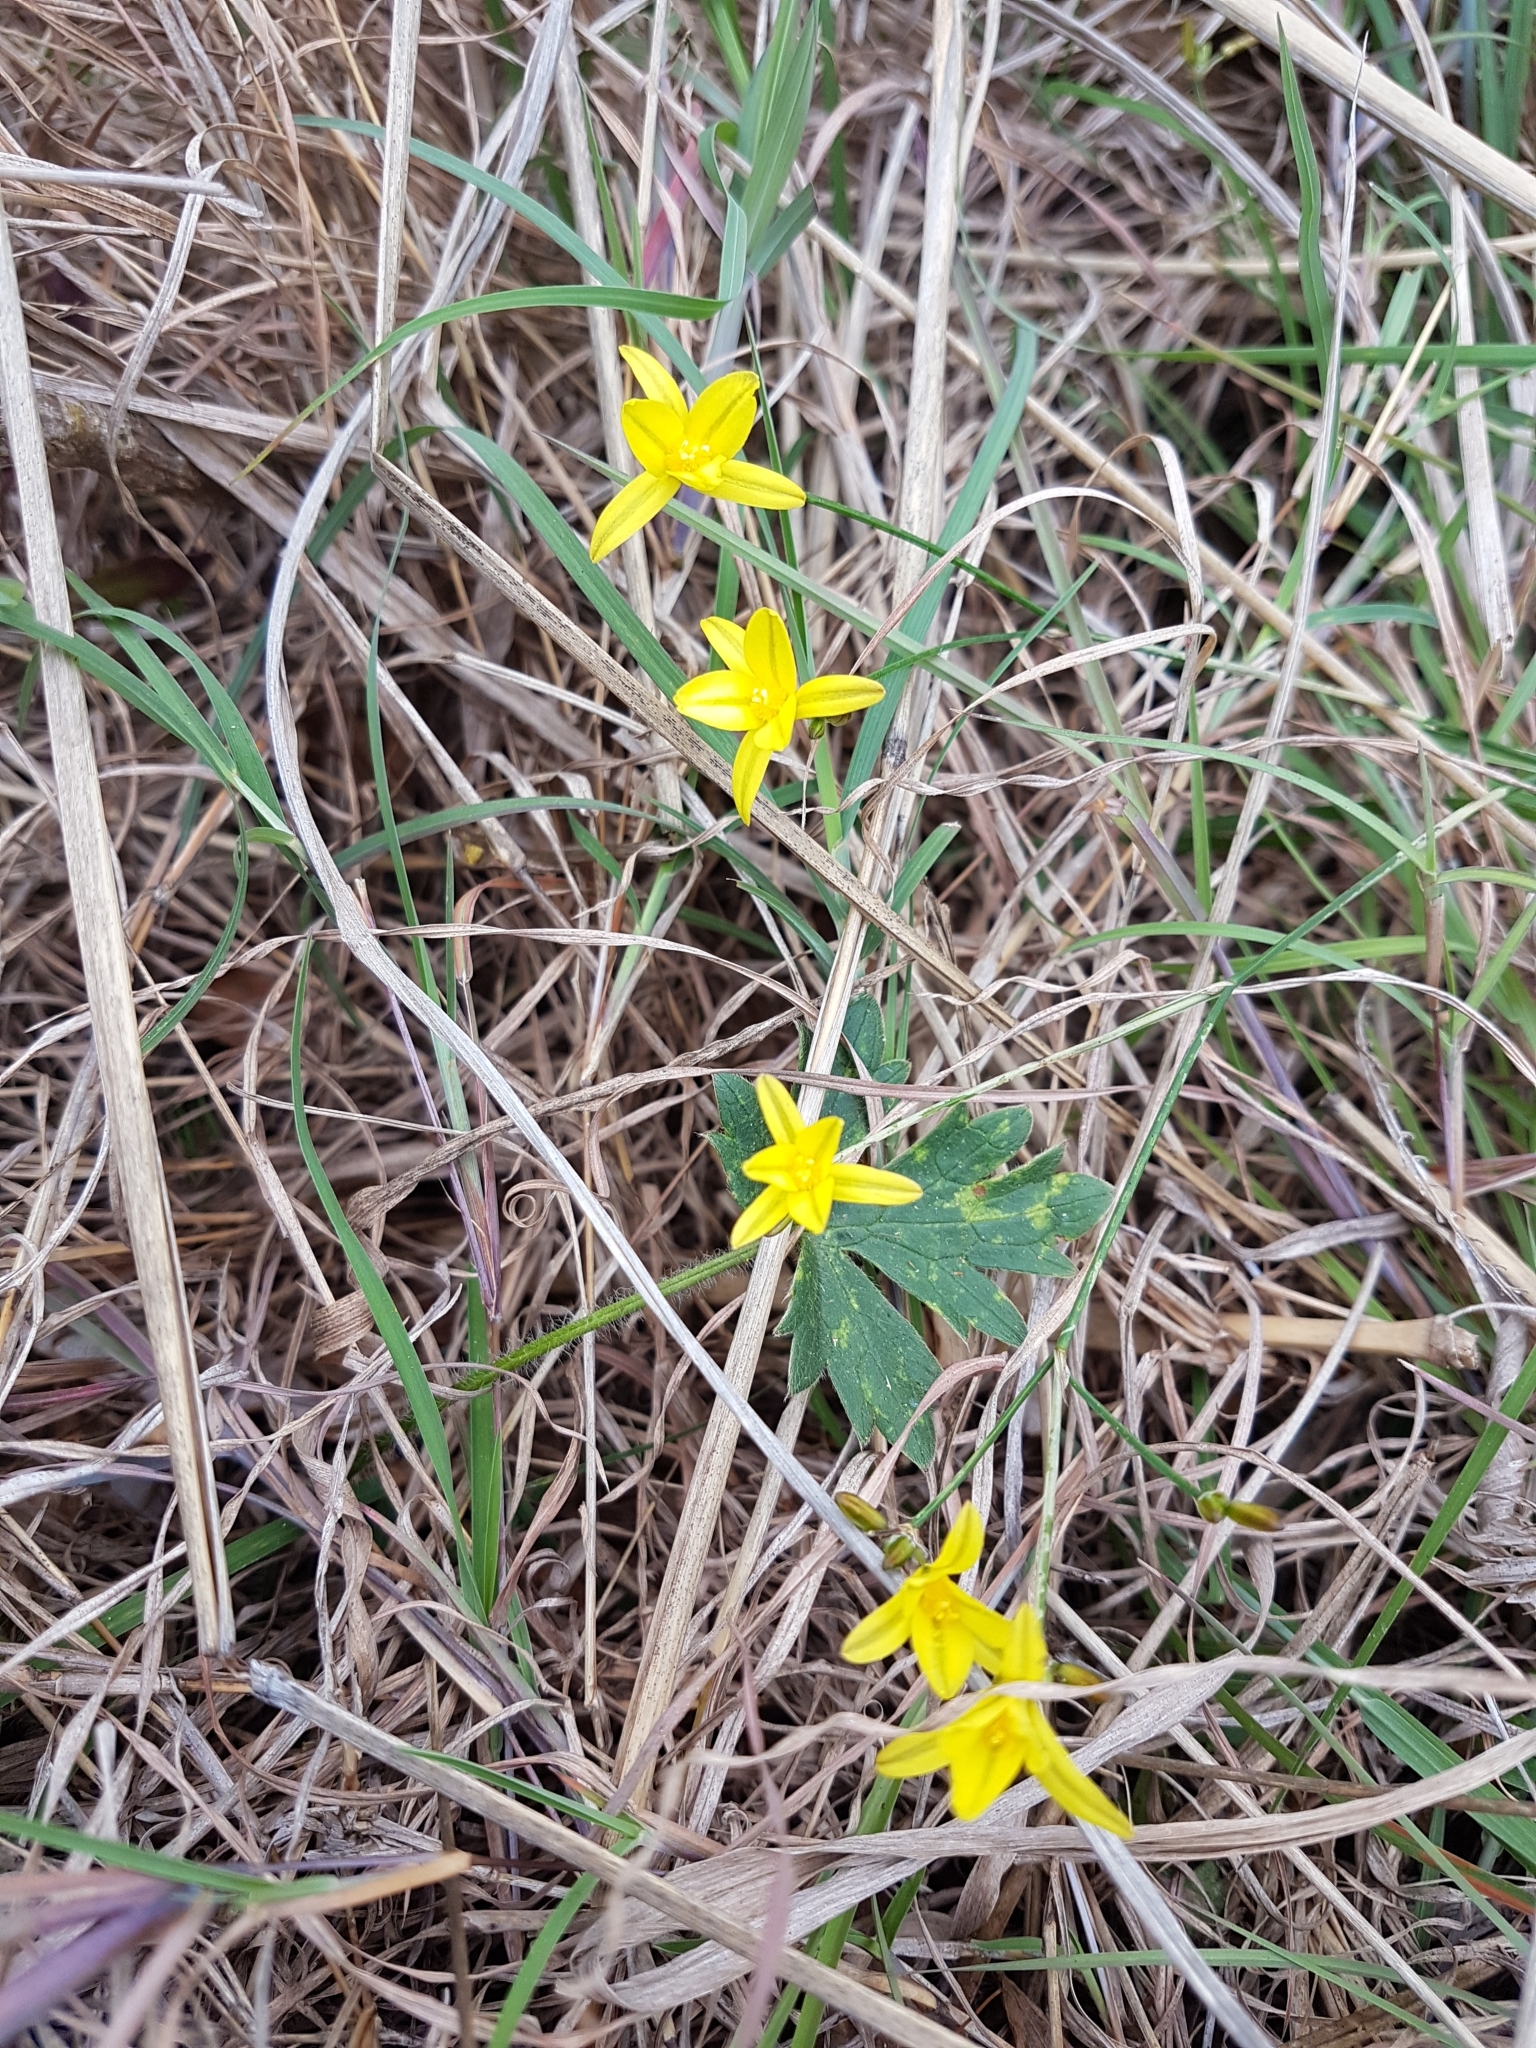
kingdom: Plantae
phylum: Tracheophyta
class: Liliopsida
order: Asparagales
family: Asphodelaceae
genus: Tricoryne
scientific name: Tricoryne elatior
